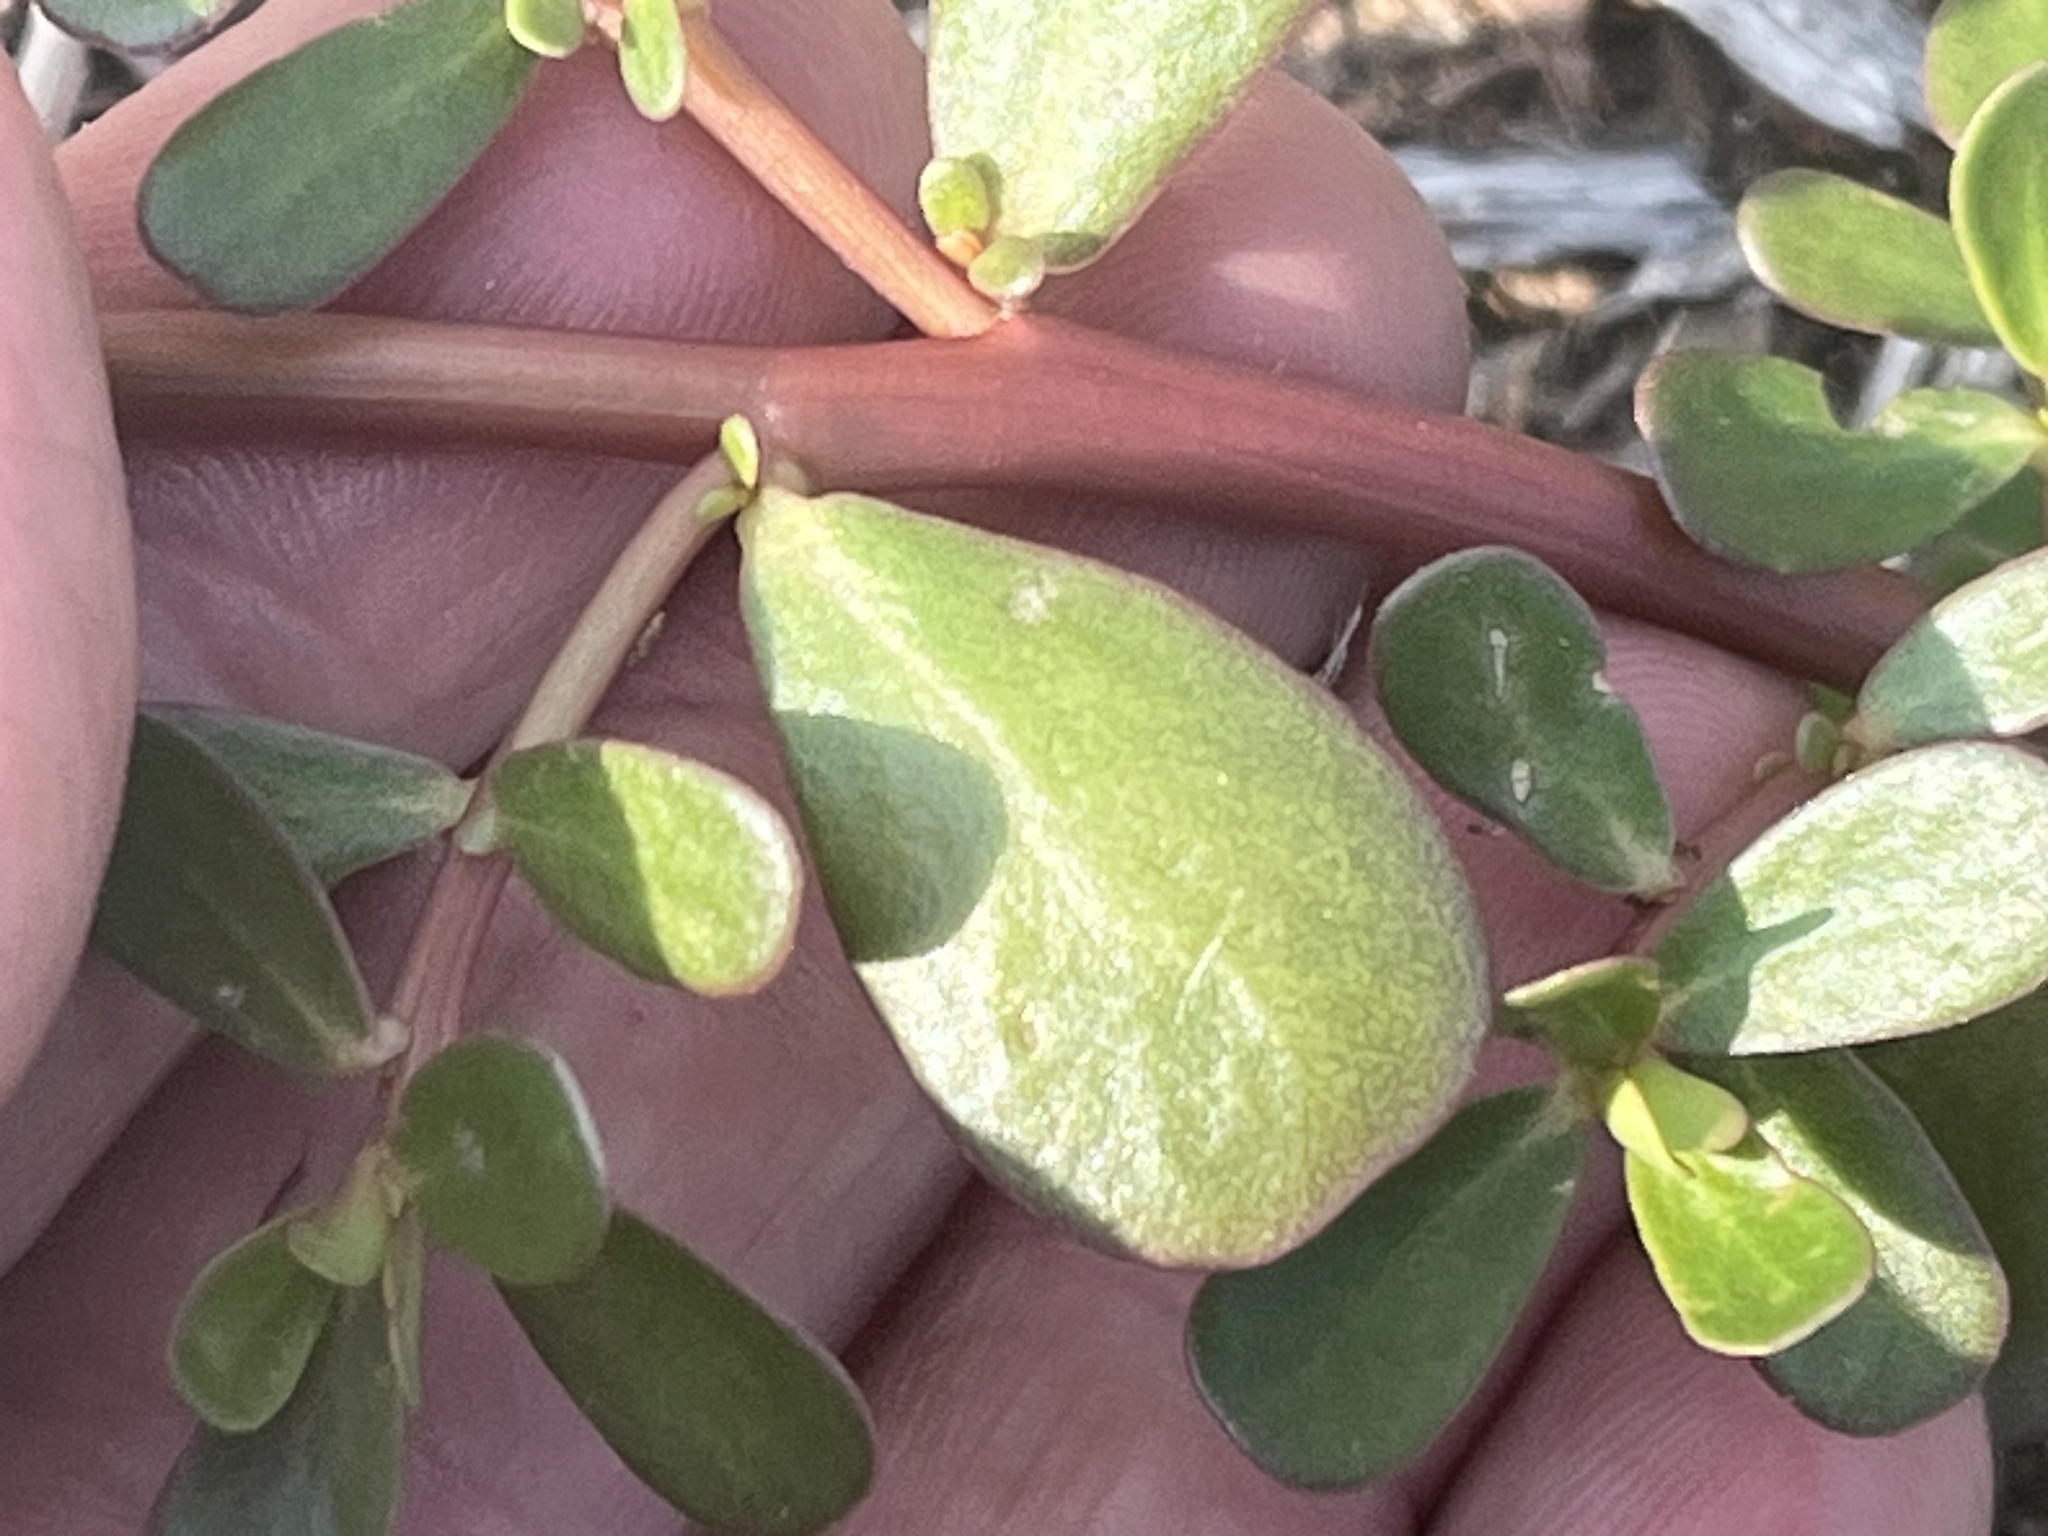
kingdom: Plantae
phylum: Tracheophyta
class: Magnoliopsida
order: Caryophyllales
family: Portulacaceae
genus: Portulaca
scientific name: Portulaca oleracea
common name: Common purslane
